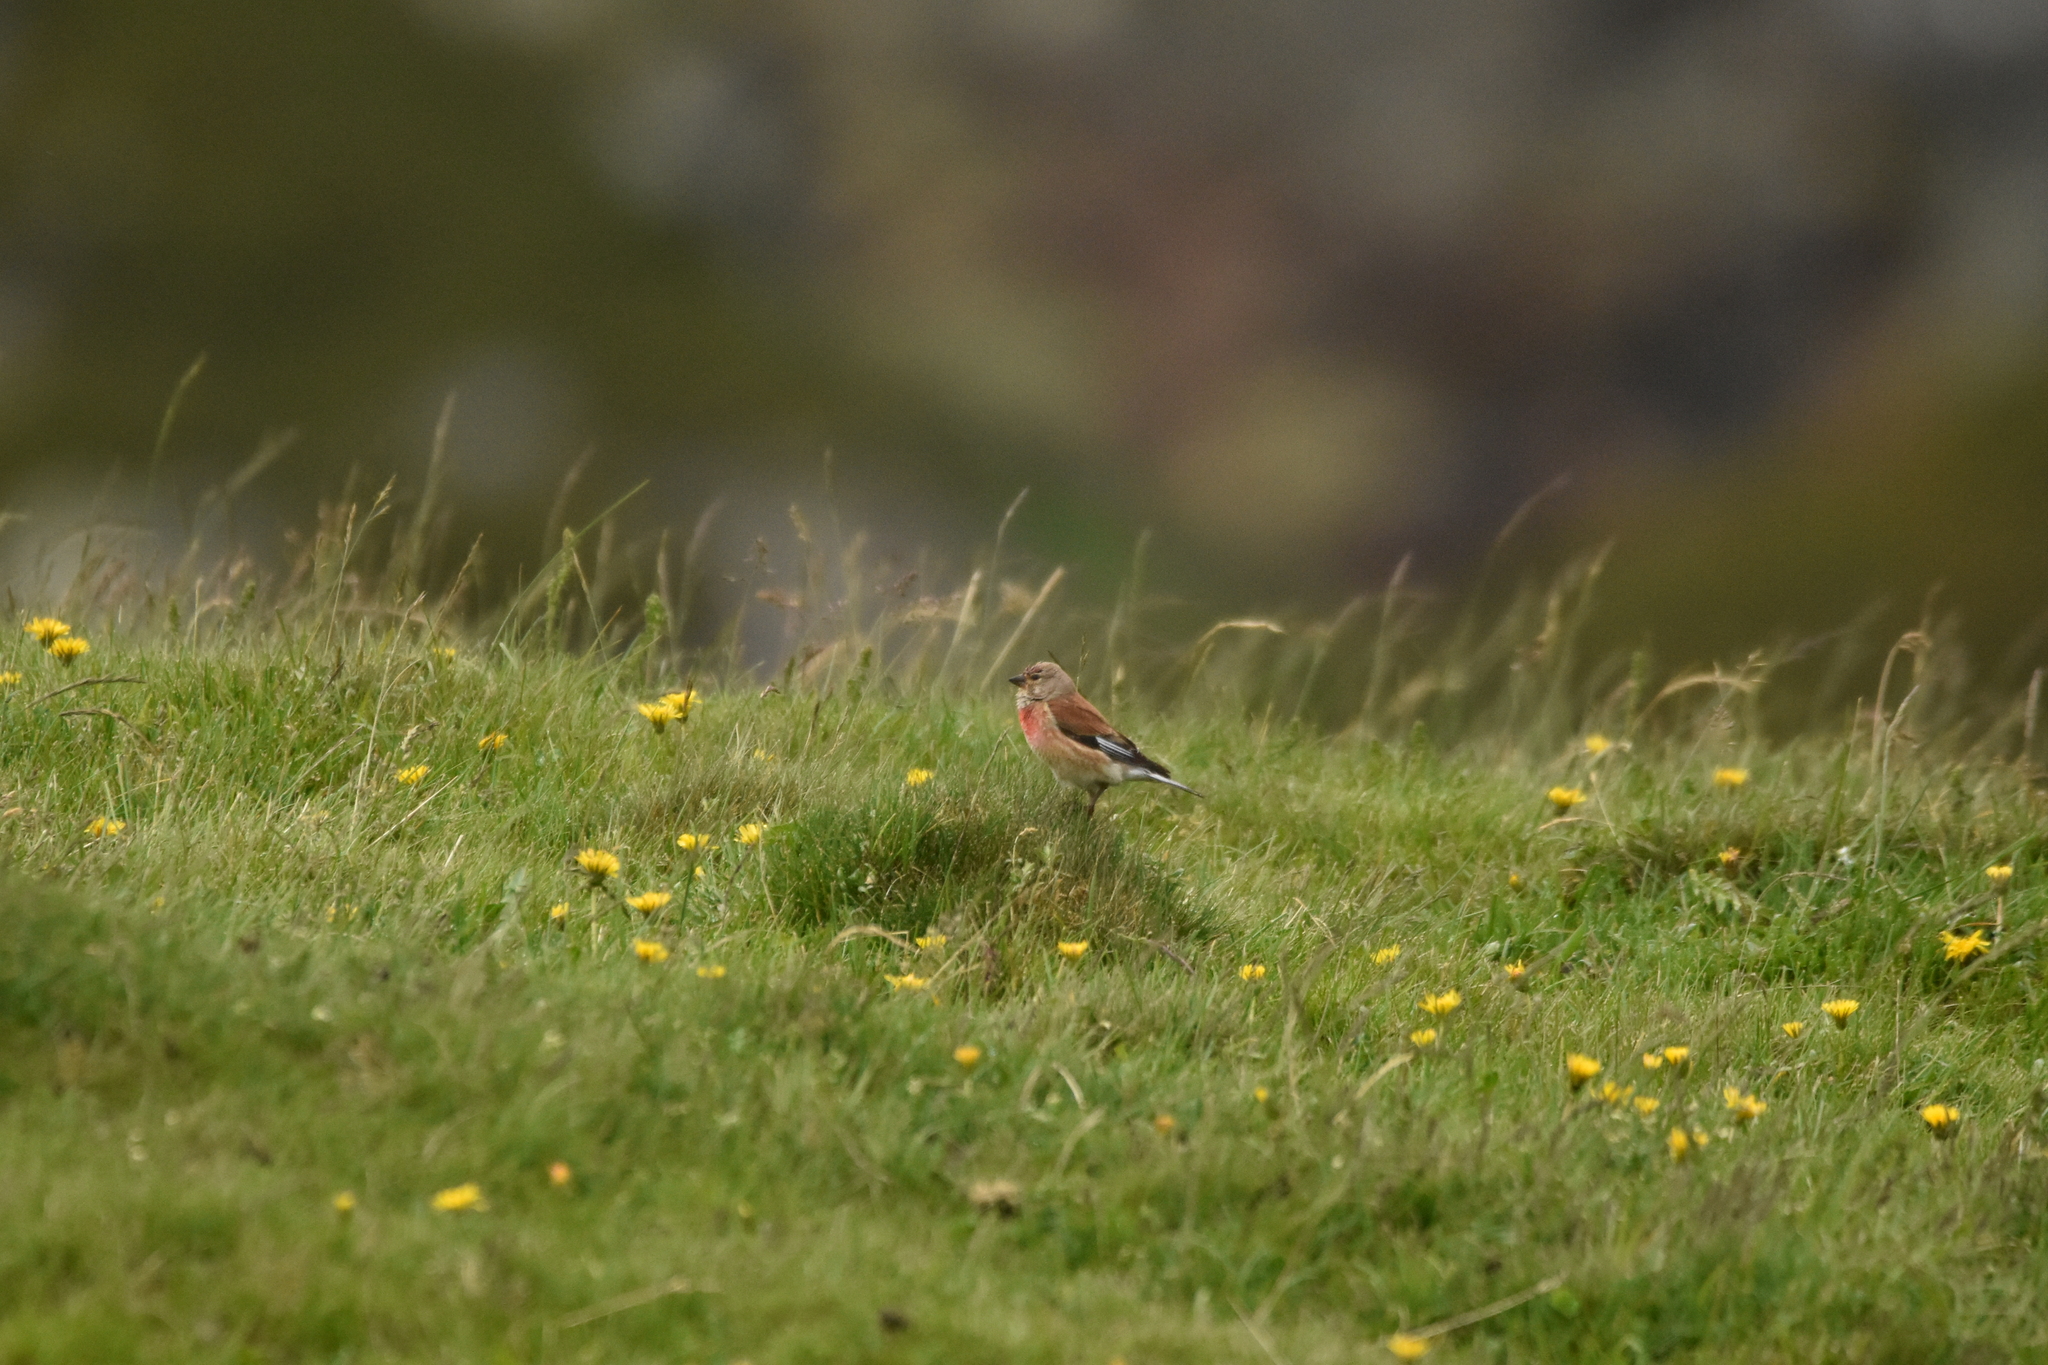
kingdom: Animalia
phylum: Chordata
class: Aves
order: Passeriformes
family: Fringillidae
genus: Linaria
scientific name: Linaria cannabina
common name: Common linnet
